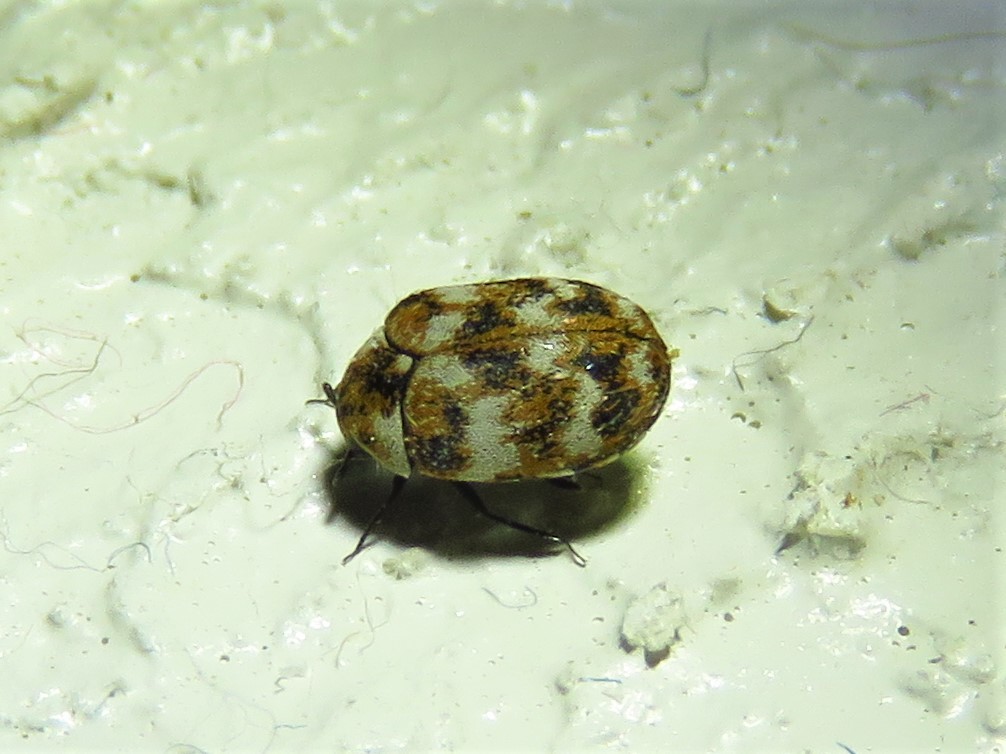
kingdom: Animalia
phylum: Arthropoda
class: Insecta
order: Coleoptera
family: Dermestidae
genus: Anthrenus
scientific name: Anthrenus verbasci
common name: Varied carpet beetle
